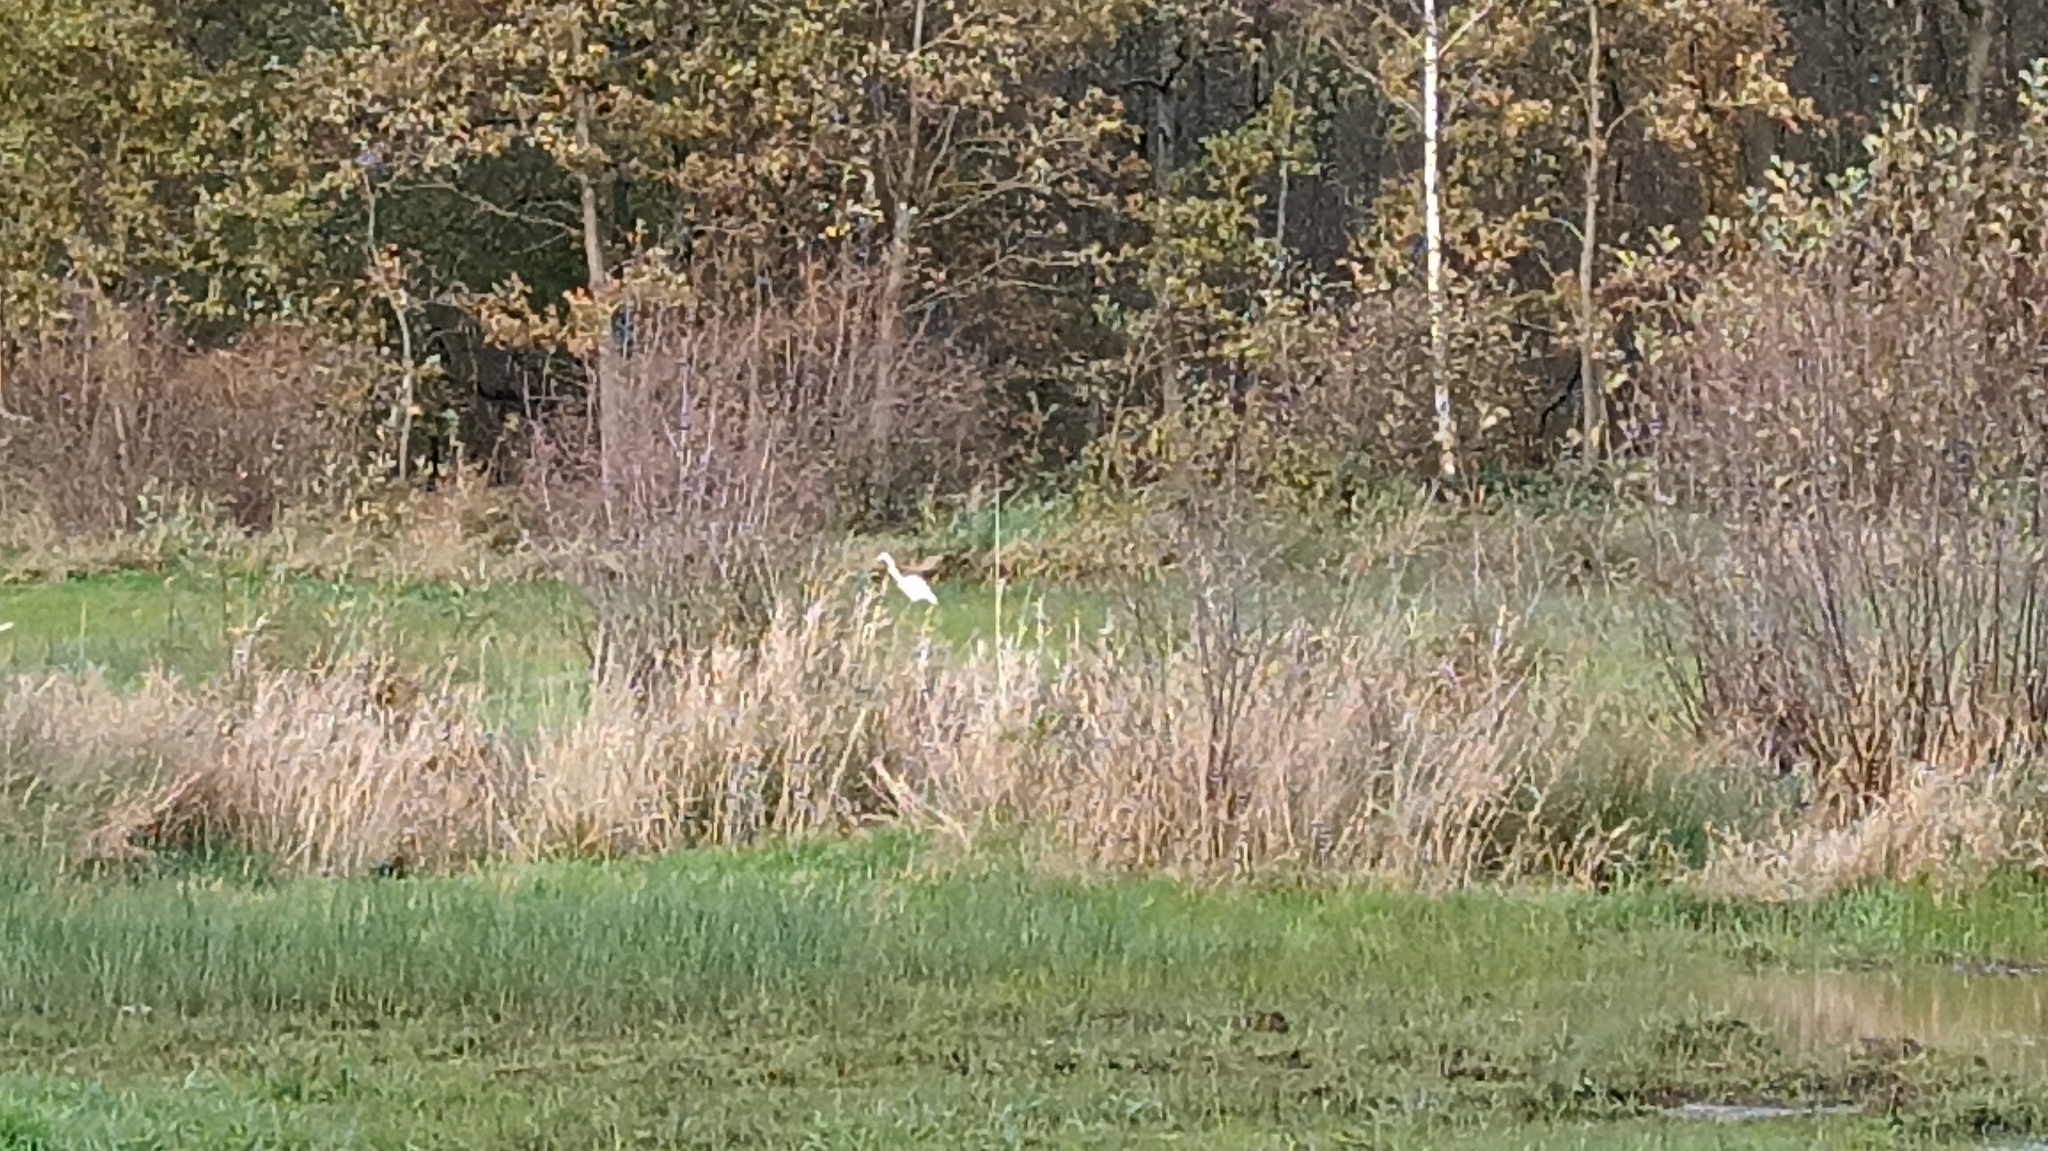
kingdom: Animalia
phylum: Chordata
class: Aves
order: Pelecaniformes
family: Ardeidae
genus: Ardea
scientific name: Ardea alba
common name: Great egret
